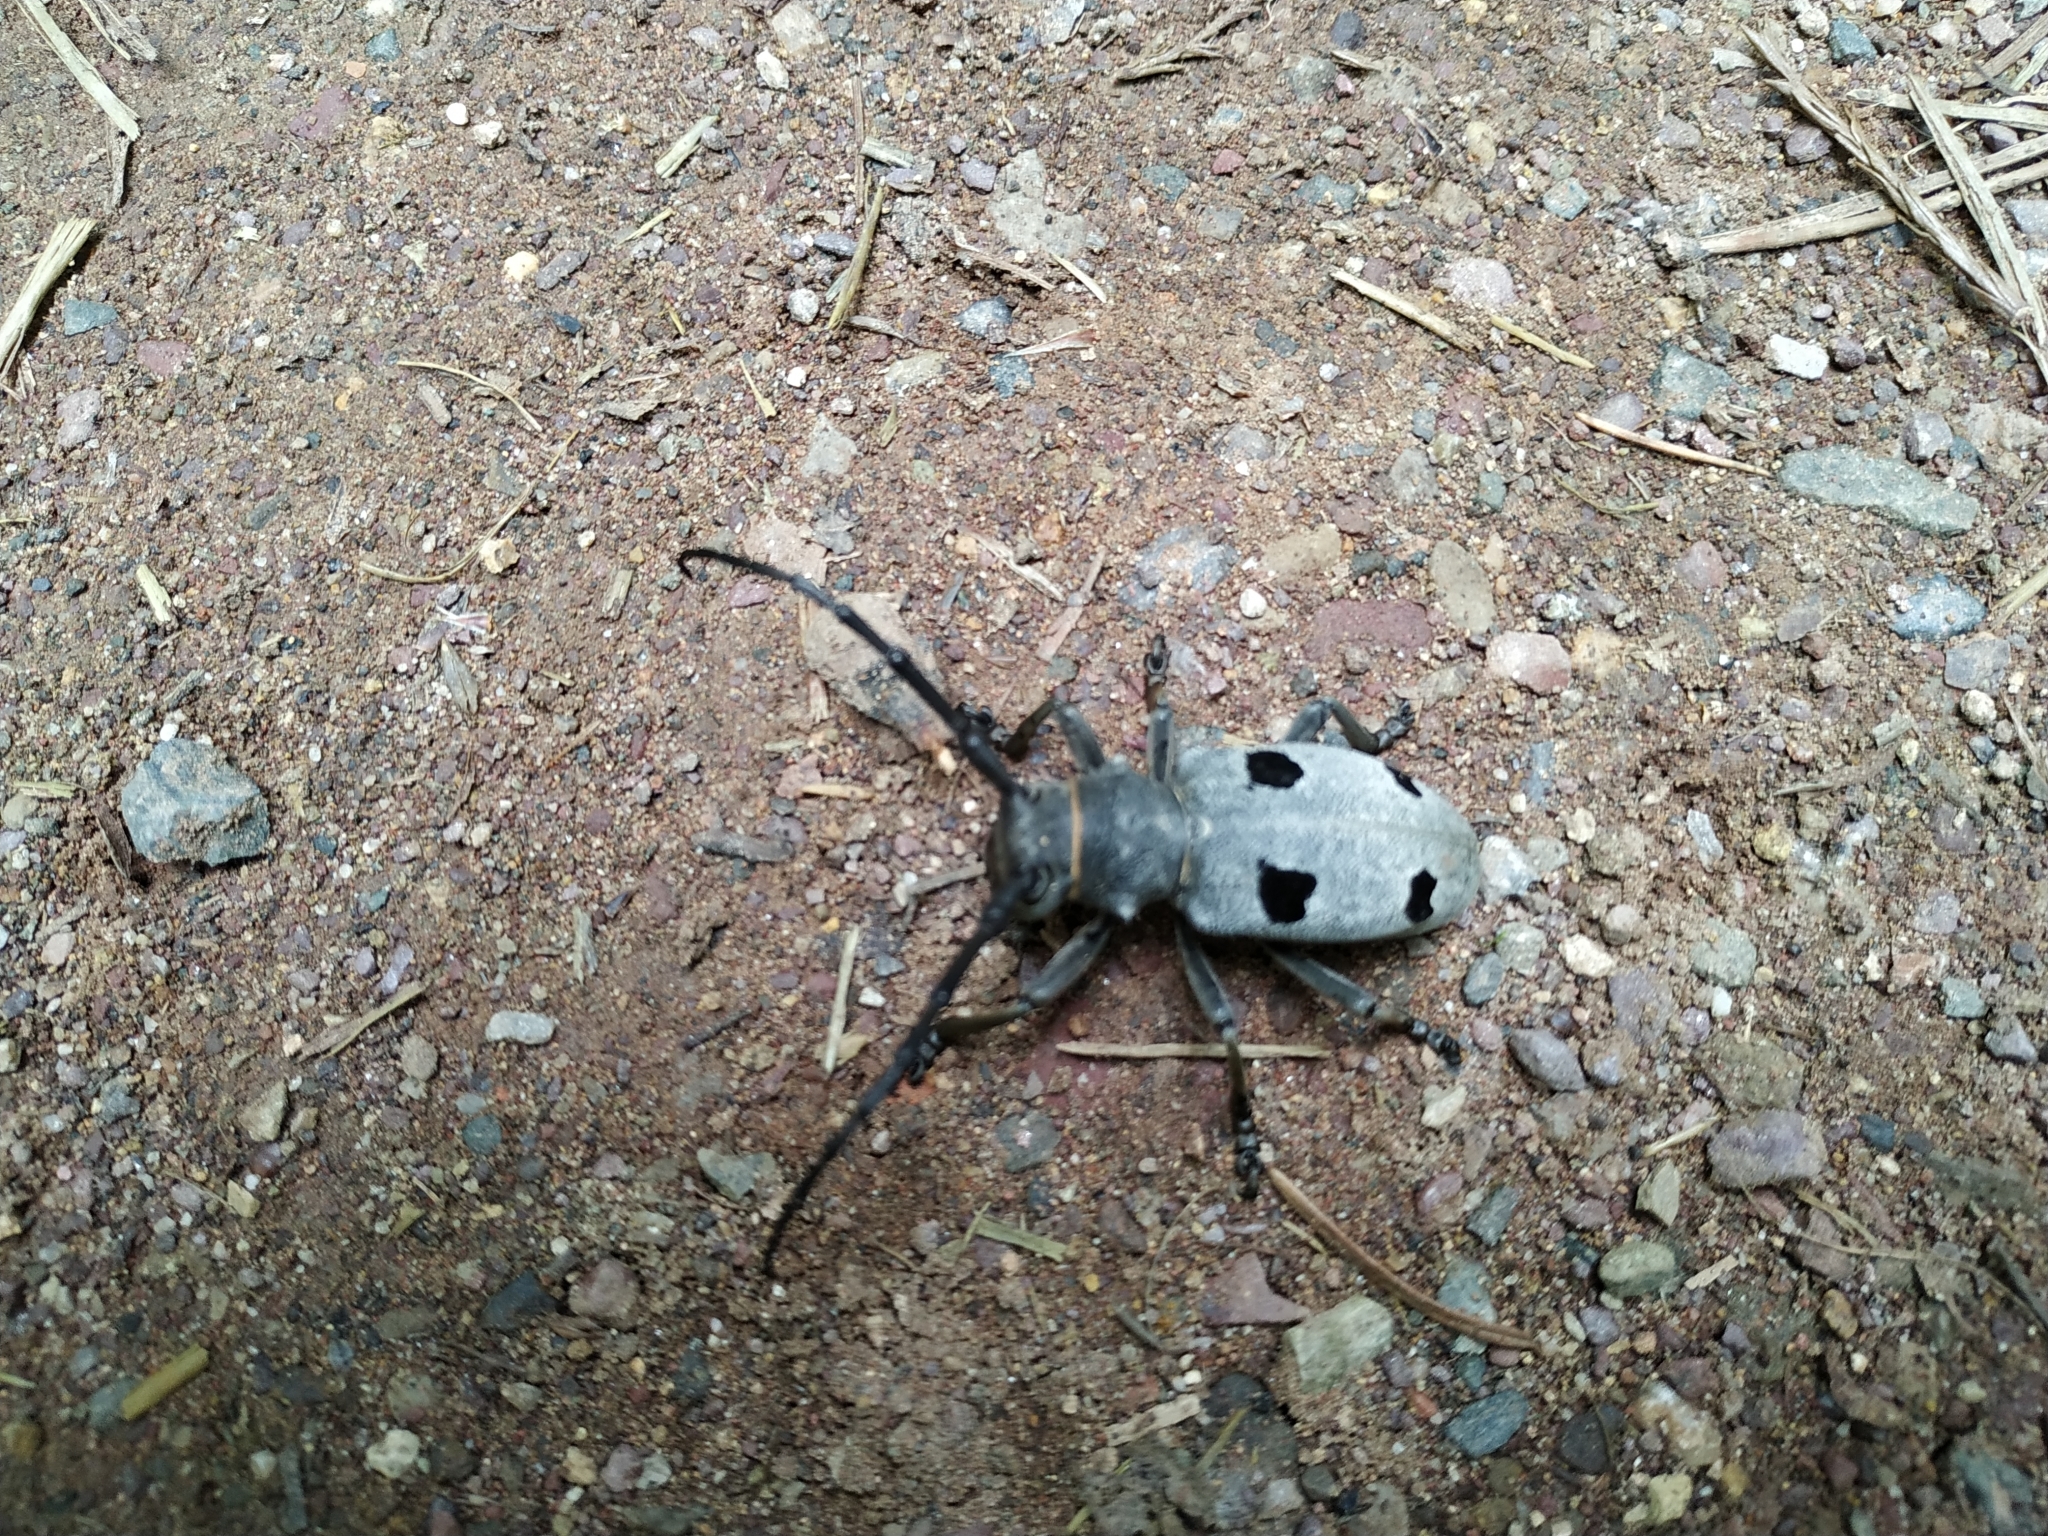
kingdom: Animalia
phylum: Arthropoda
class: Insecta
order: Coleoptera
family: Cerambycidae
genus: Morimus
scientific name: Morimus funereus
